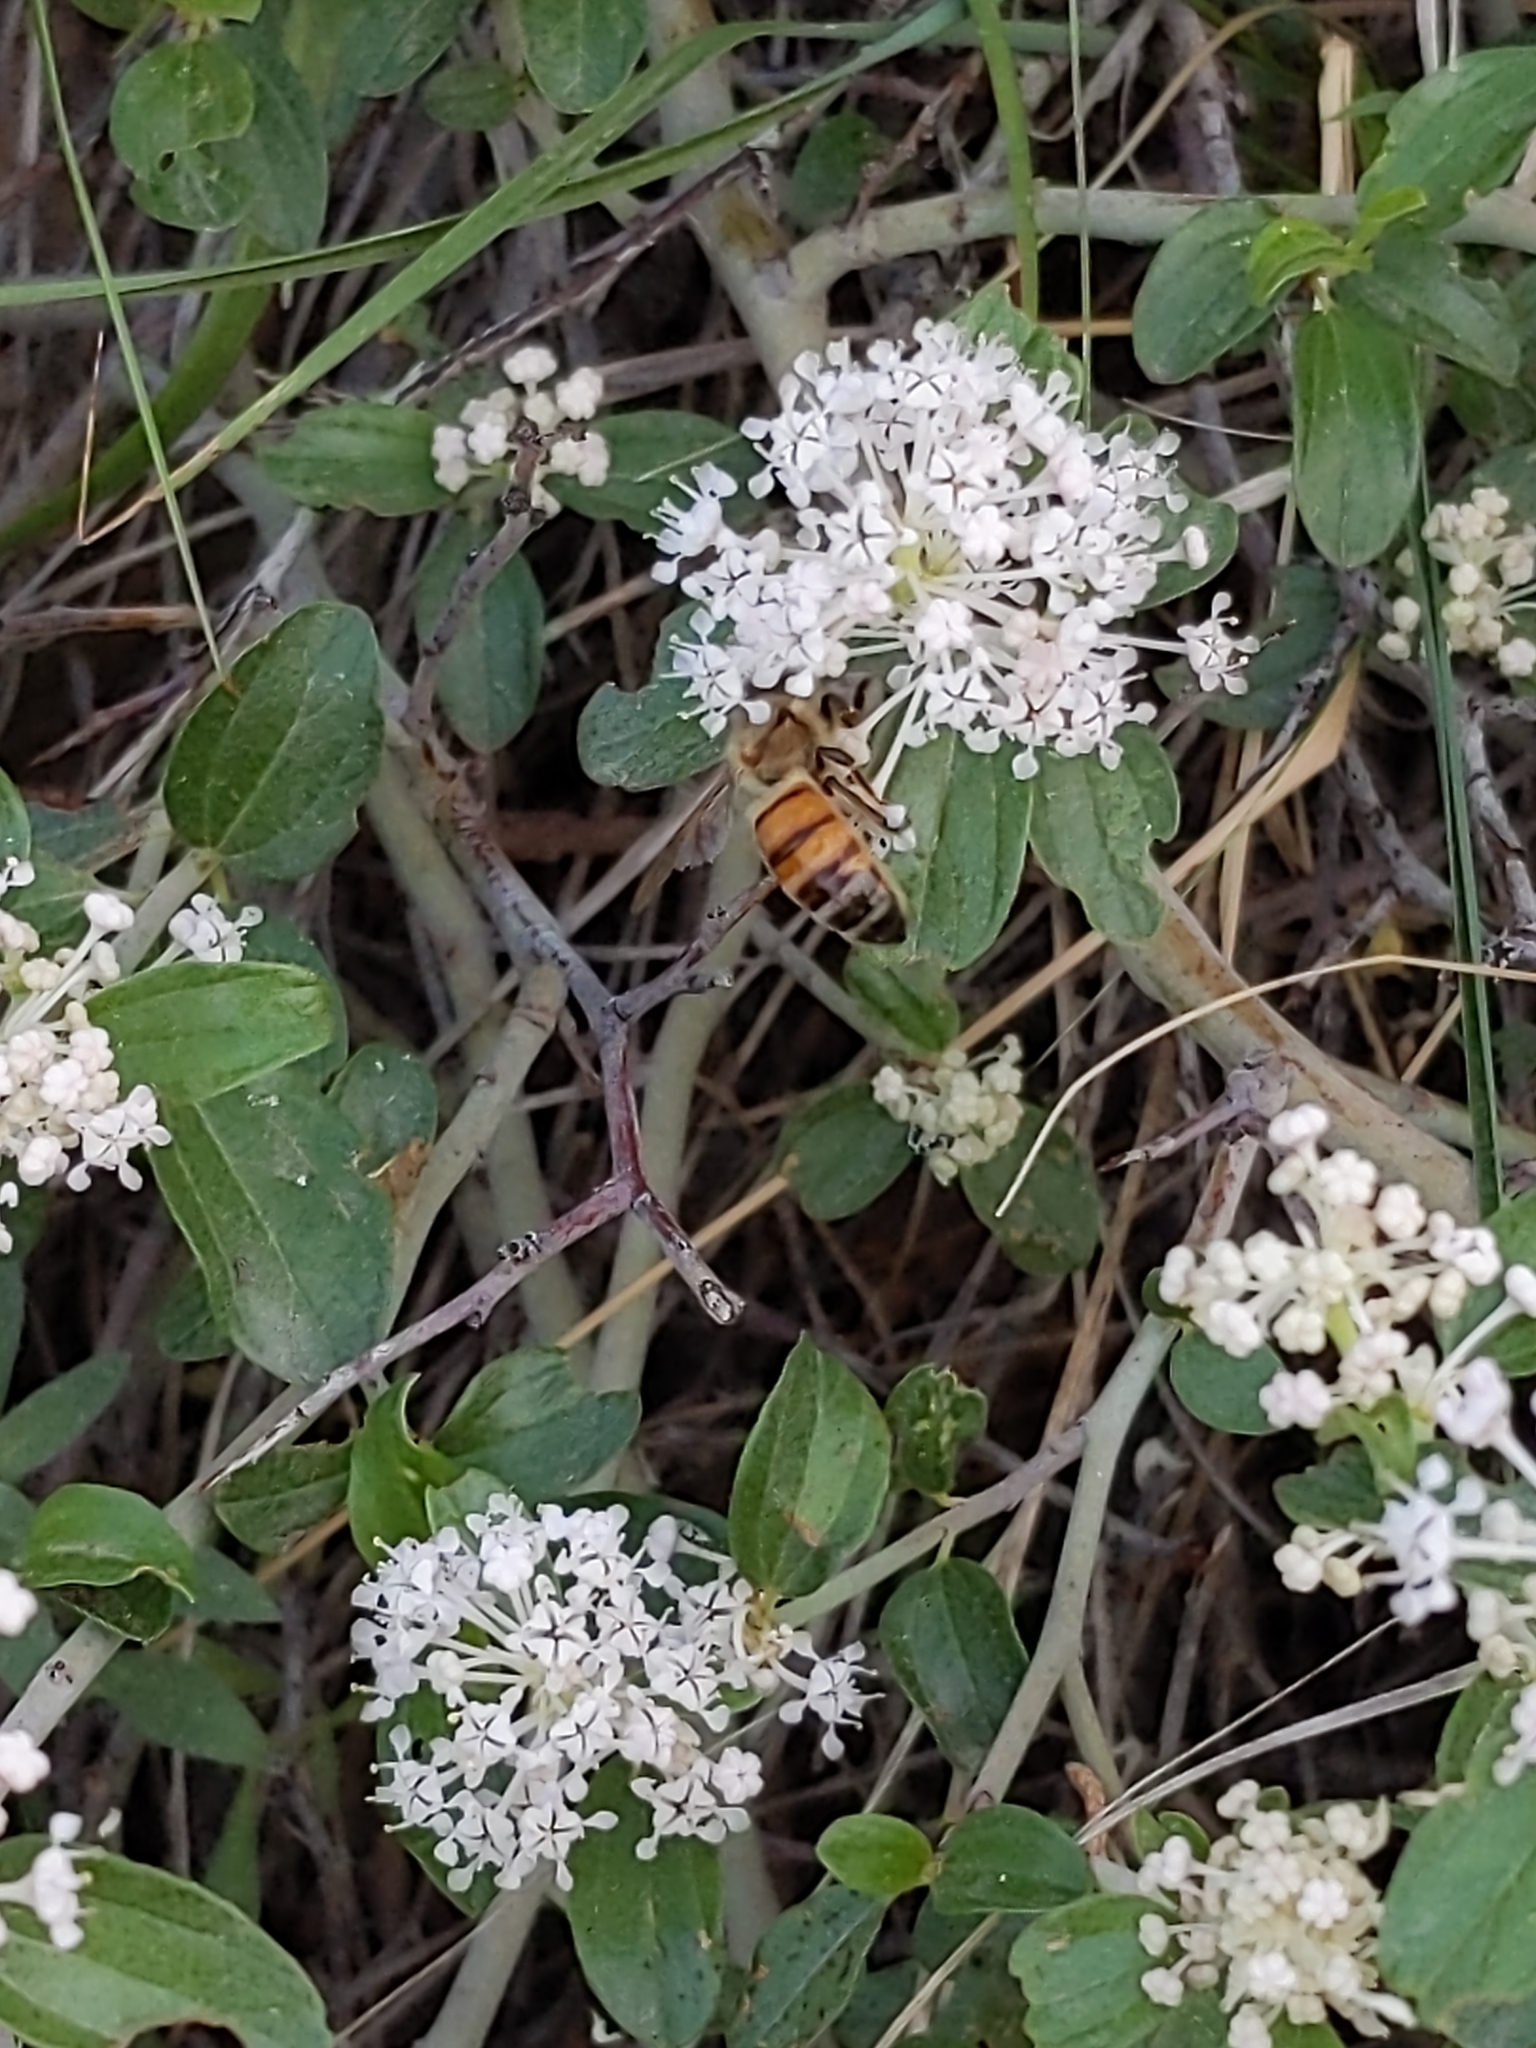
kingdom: Animalia
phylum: Arthropoda
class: Insecta
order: Hymenoptera
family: Apidae
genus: Apis
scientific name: Apis mellifera
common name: Honey bee
